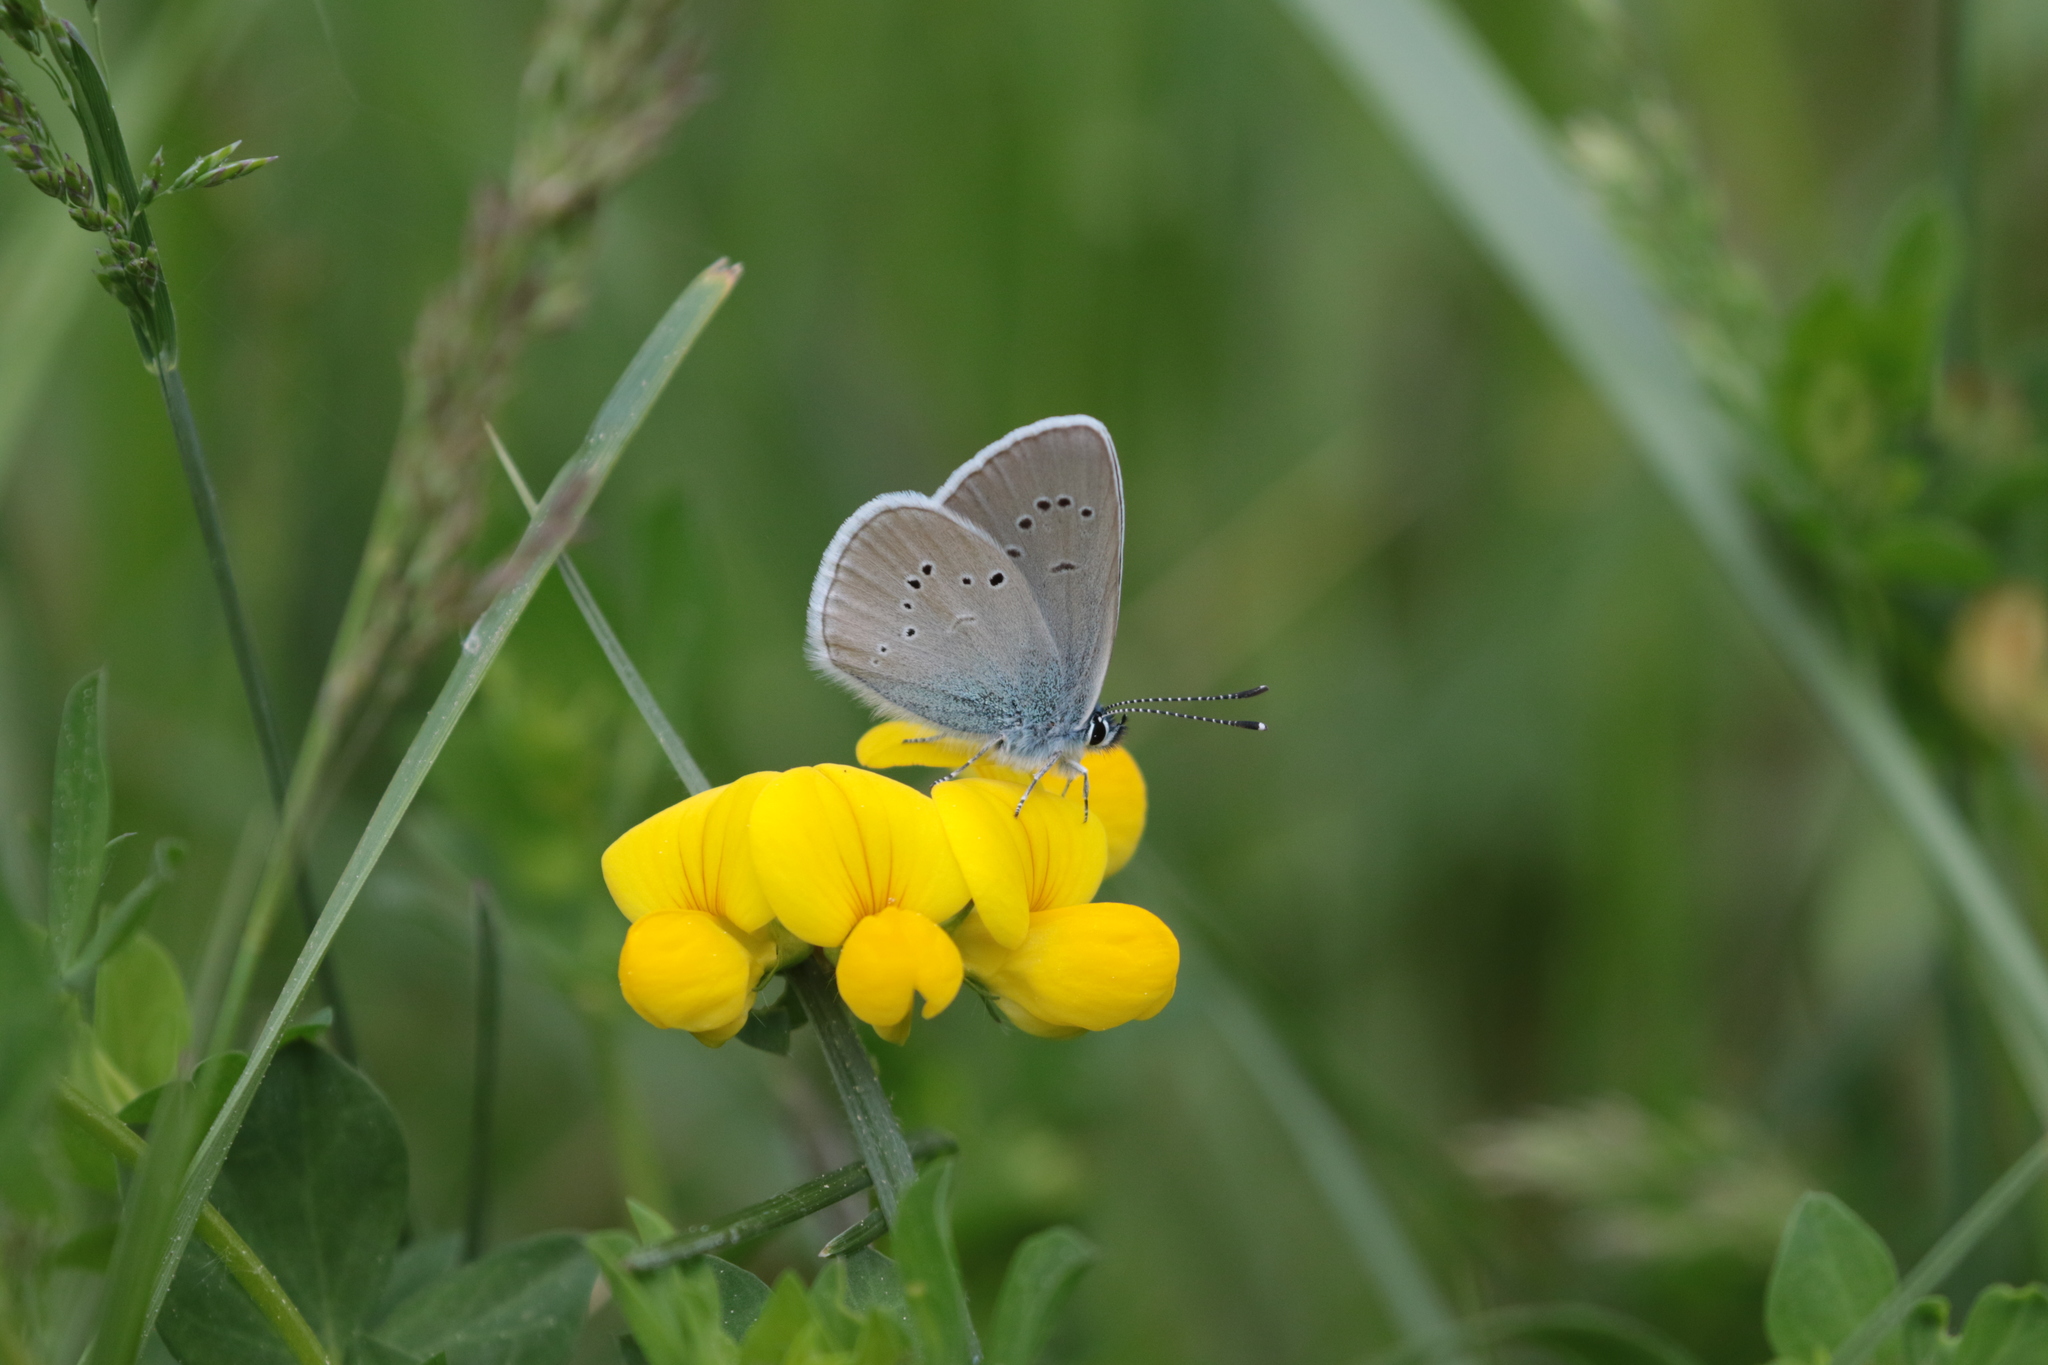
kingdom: Animalia
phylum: Arthropoda
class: Insecta
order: Lepidoptera
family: Lycaenidae
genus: Cyaniris
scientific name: Cyaniris semiargus
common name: Mazarine blue
